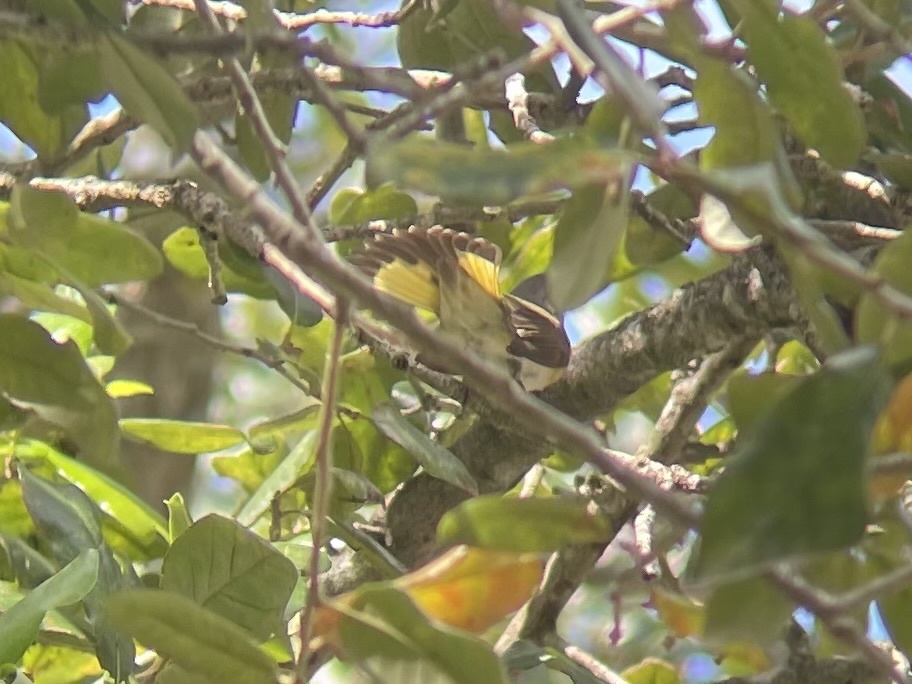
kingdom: Animalia
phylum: Chordata
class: Aves
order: Passeriformes
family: Parulidae
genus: Setophaga
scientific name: Setophaga ruticilla
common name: American redstart
